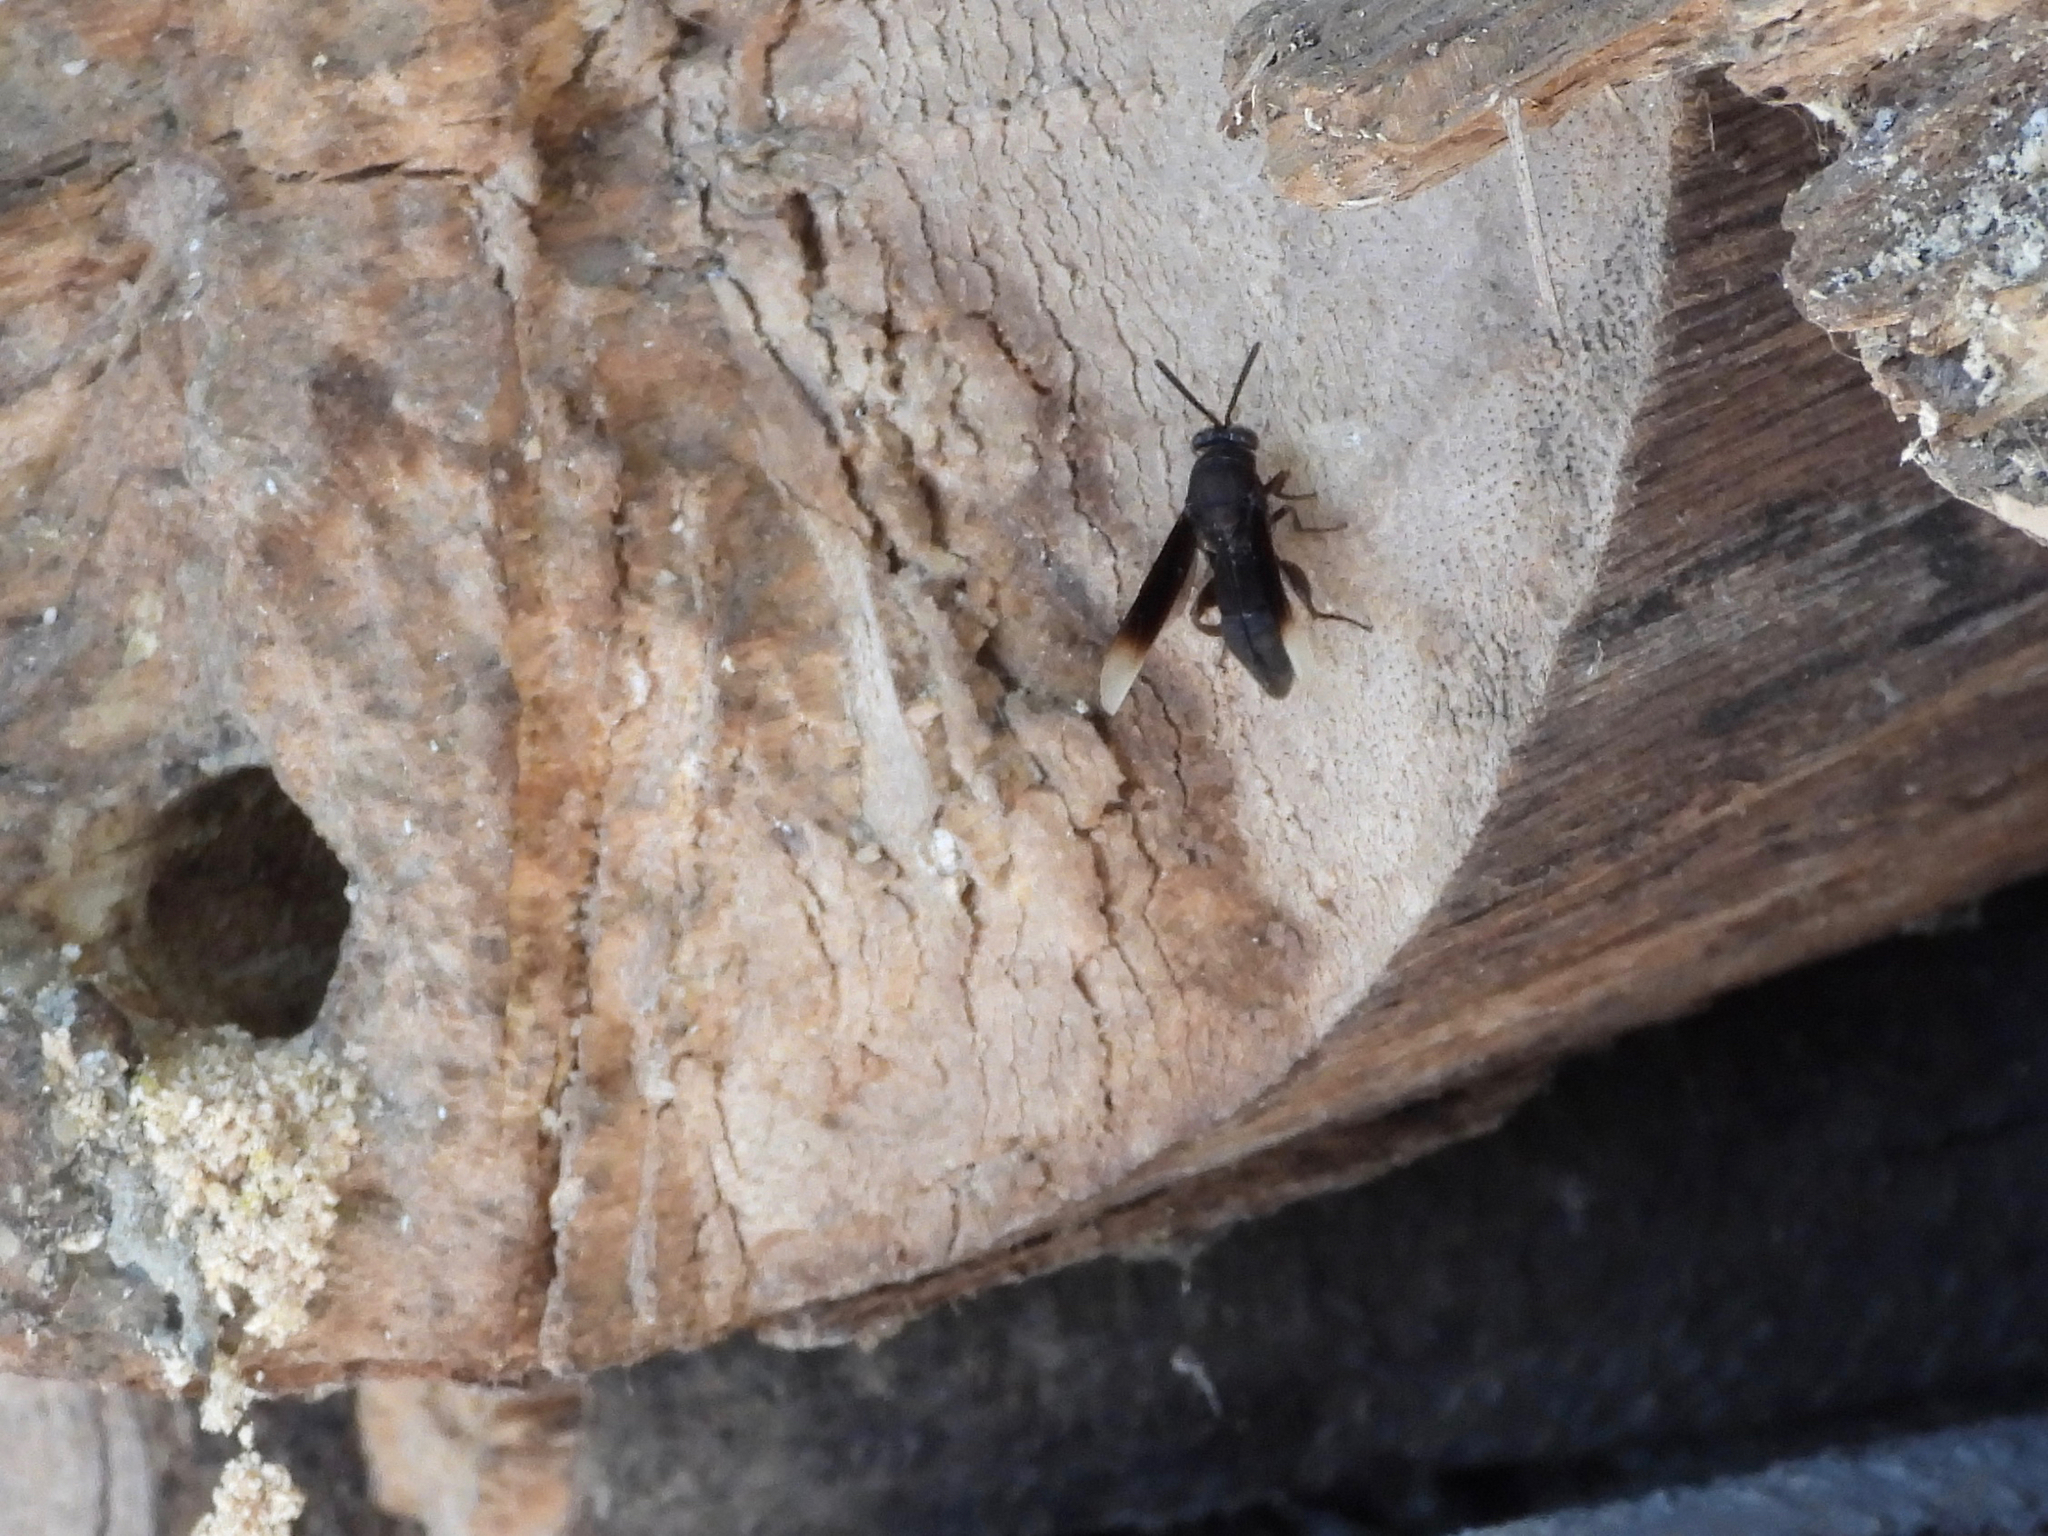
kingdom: Animalia
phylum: Arthropoda
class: Insecta
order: Hymenoptera
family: Leucospidae
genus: Leucospis
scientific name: Leucospis leucotelus
